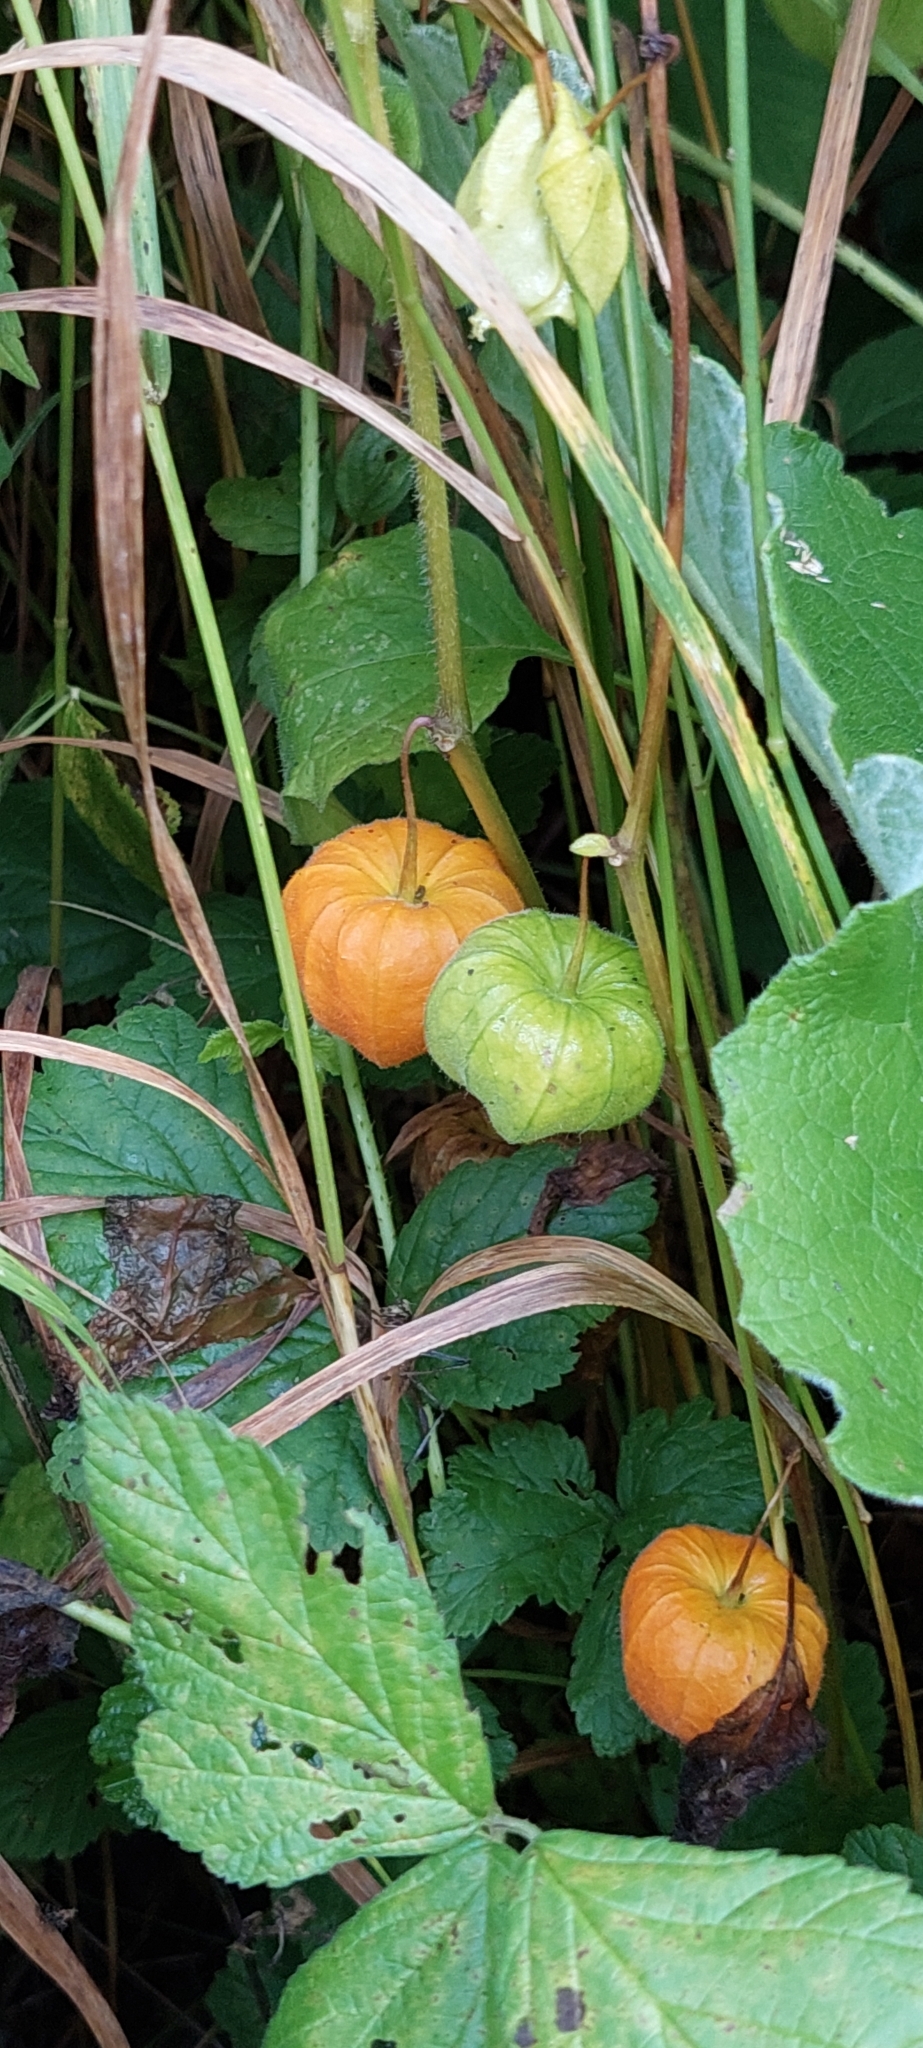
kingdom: Plantae
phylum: Tracheophyta
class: Magnoliopsida
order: Solanales
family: Solanaceae
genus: Alkekengi
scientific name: Alkekengi officinarum
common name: Japanese-lantern
